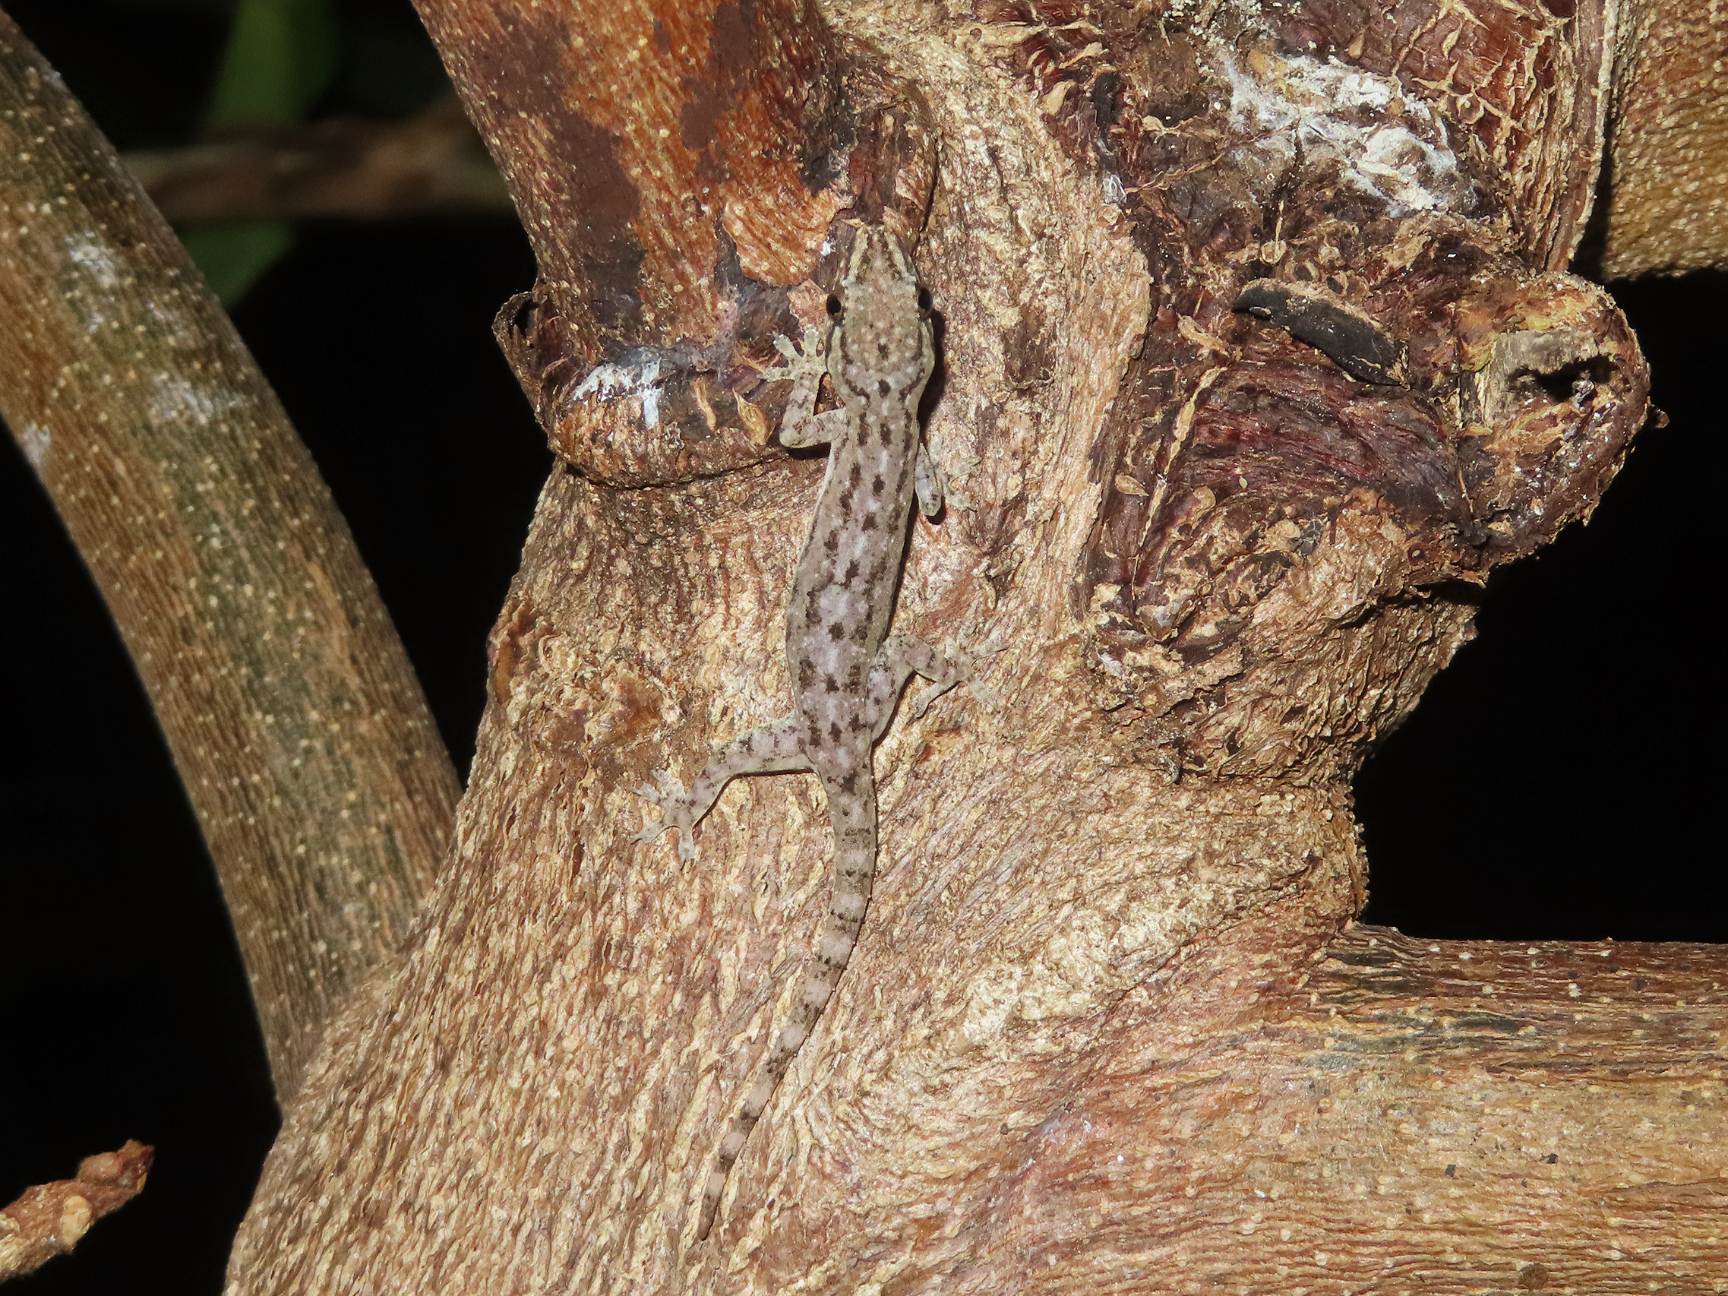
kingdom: Animalia
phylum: Chordata
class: Squamata
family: Gekkonidae
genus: Hemidactylus
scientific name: Hemidactylus frenatus
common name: Common house gecko
